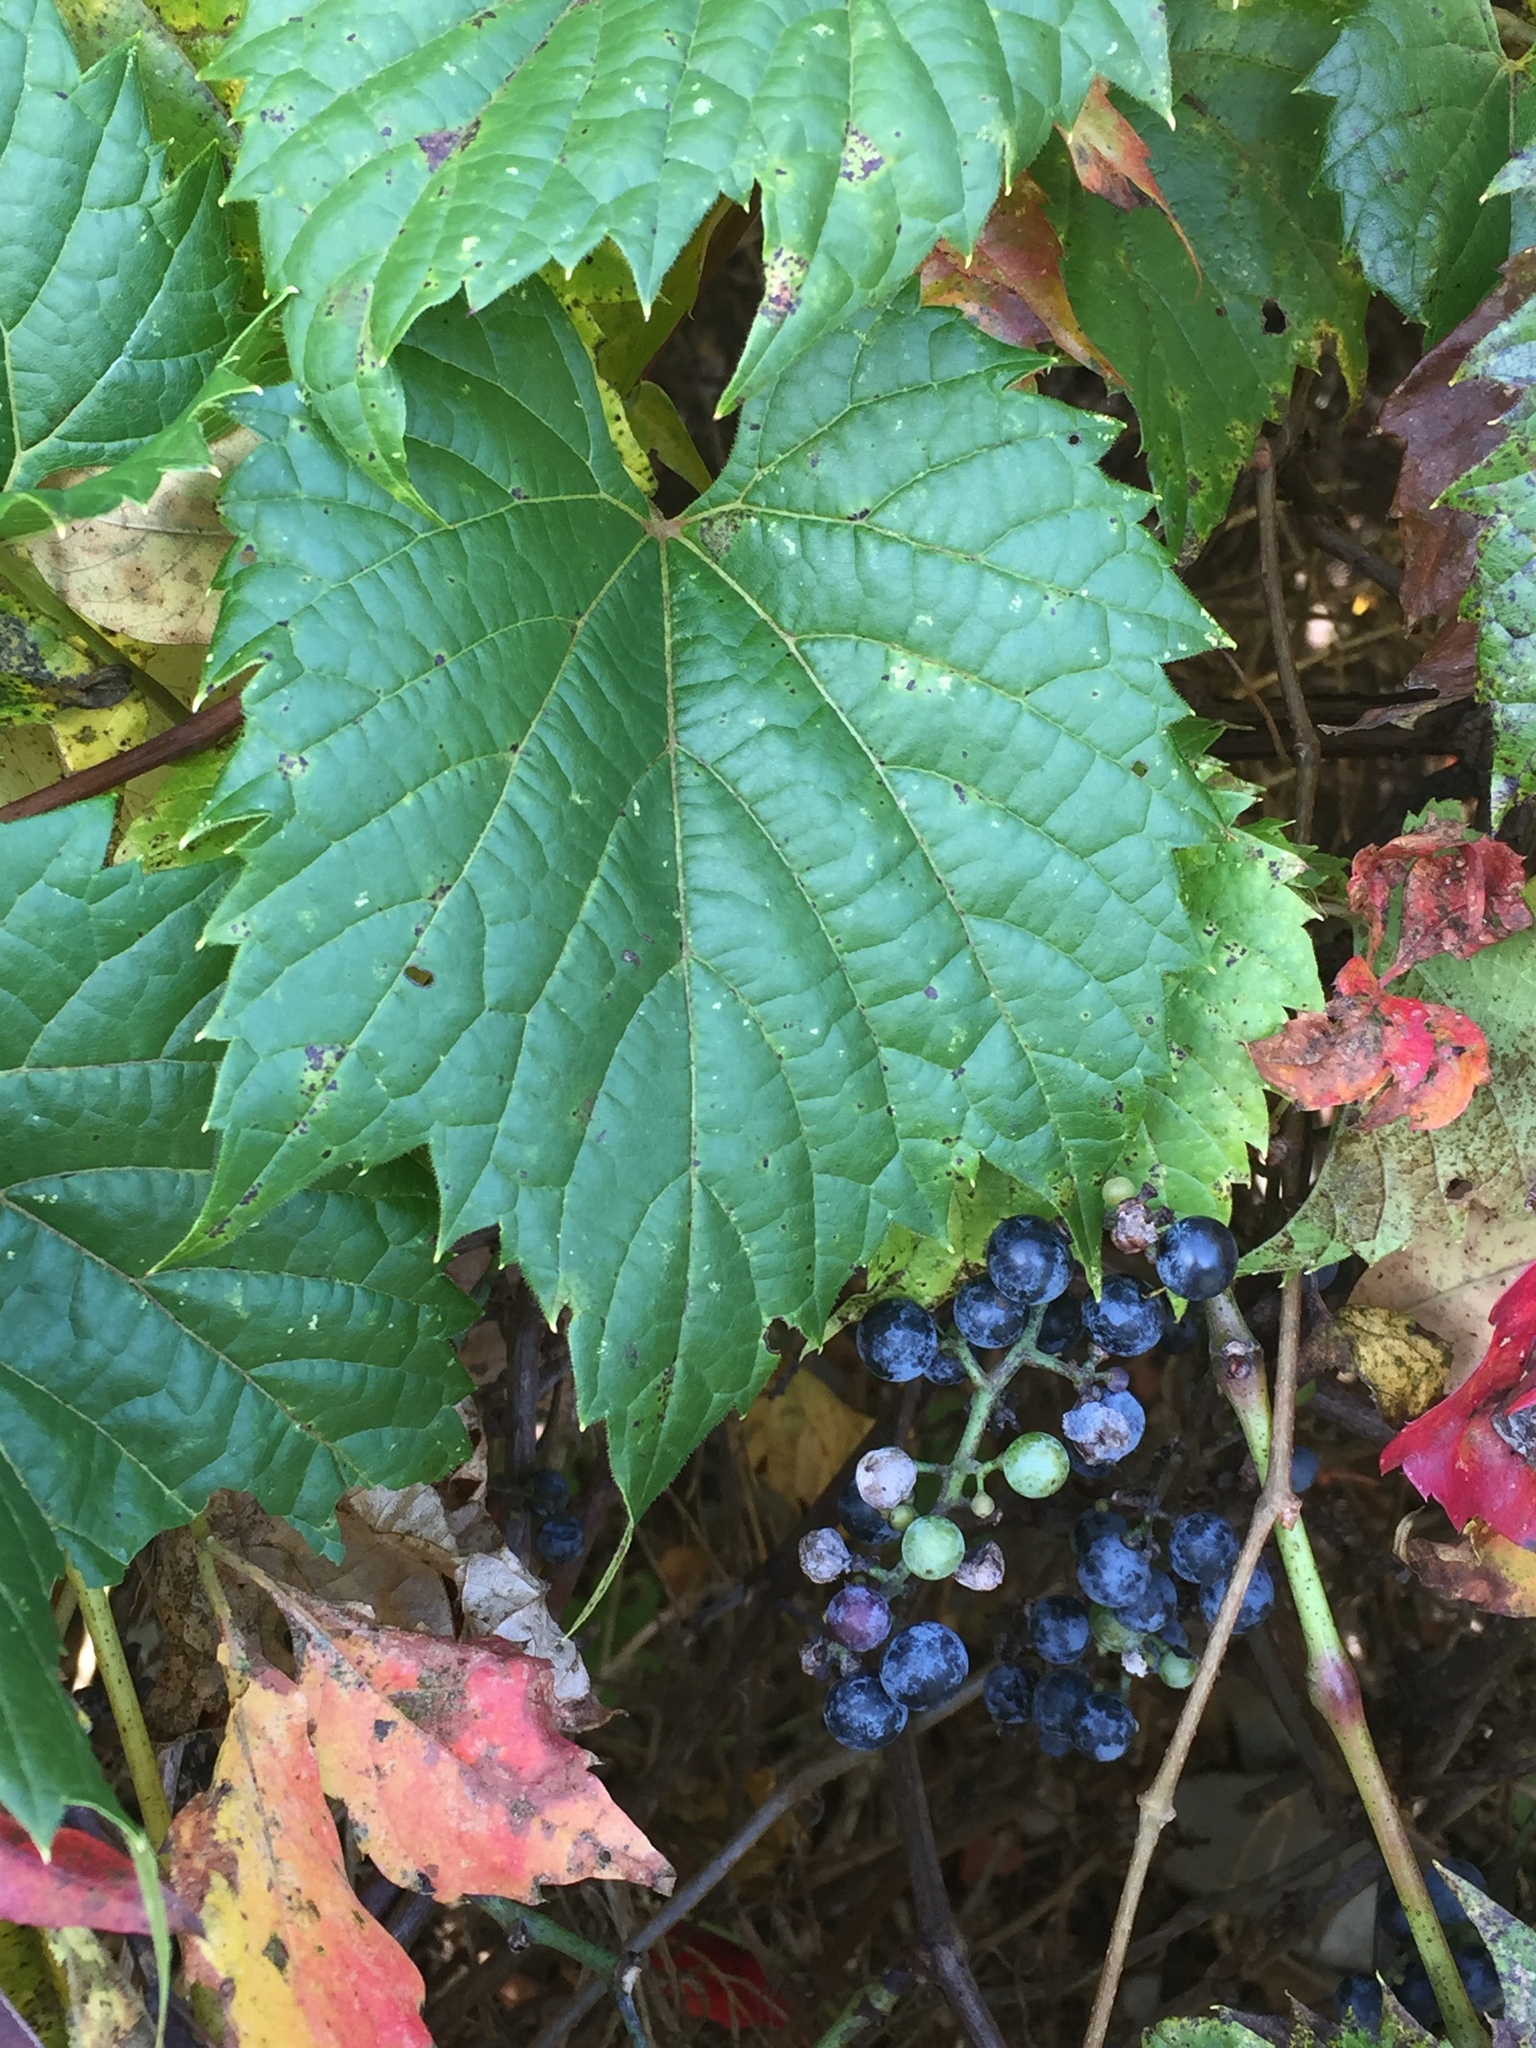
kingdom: Plantae
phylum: Tracheophyta
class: Magnoliopsida
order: Vitales
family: Vitaceae
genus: Vitis
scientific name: Vitis riparia
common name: Frost grape
